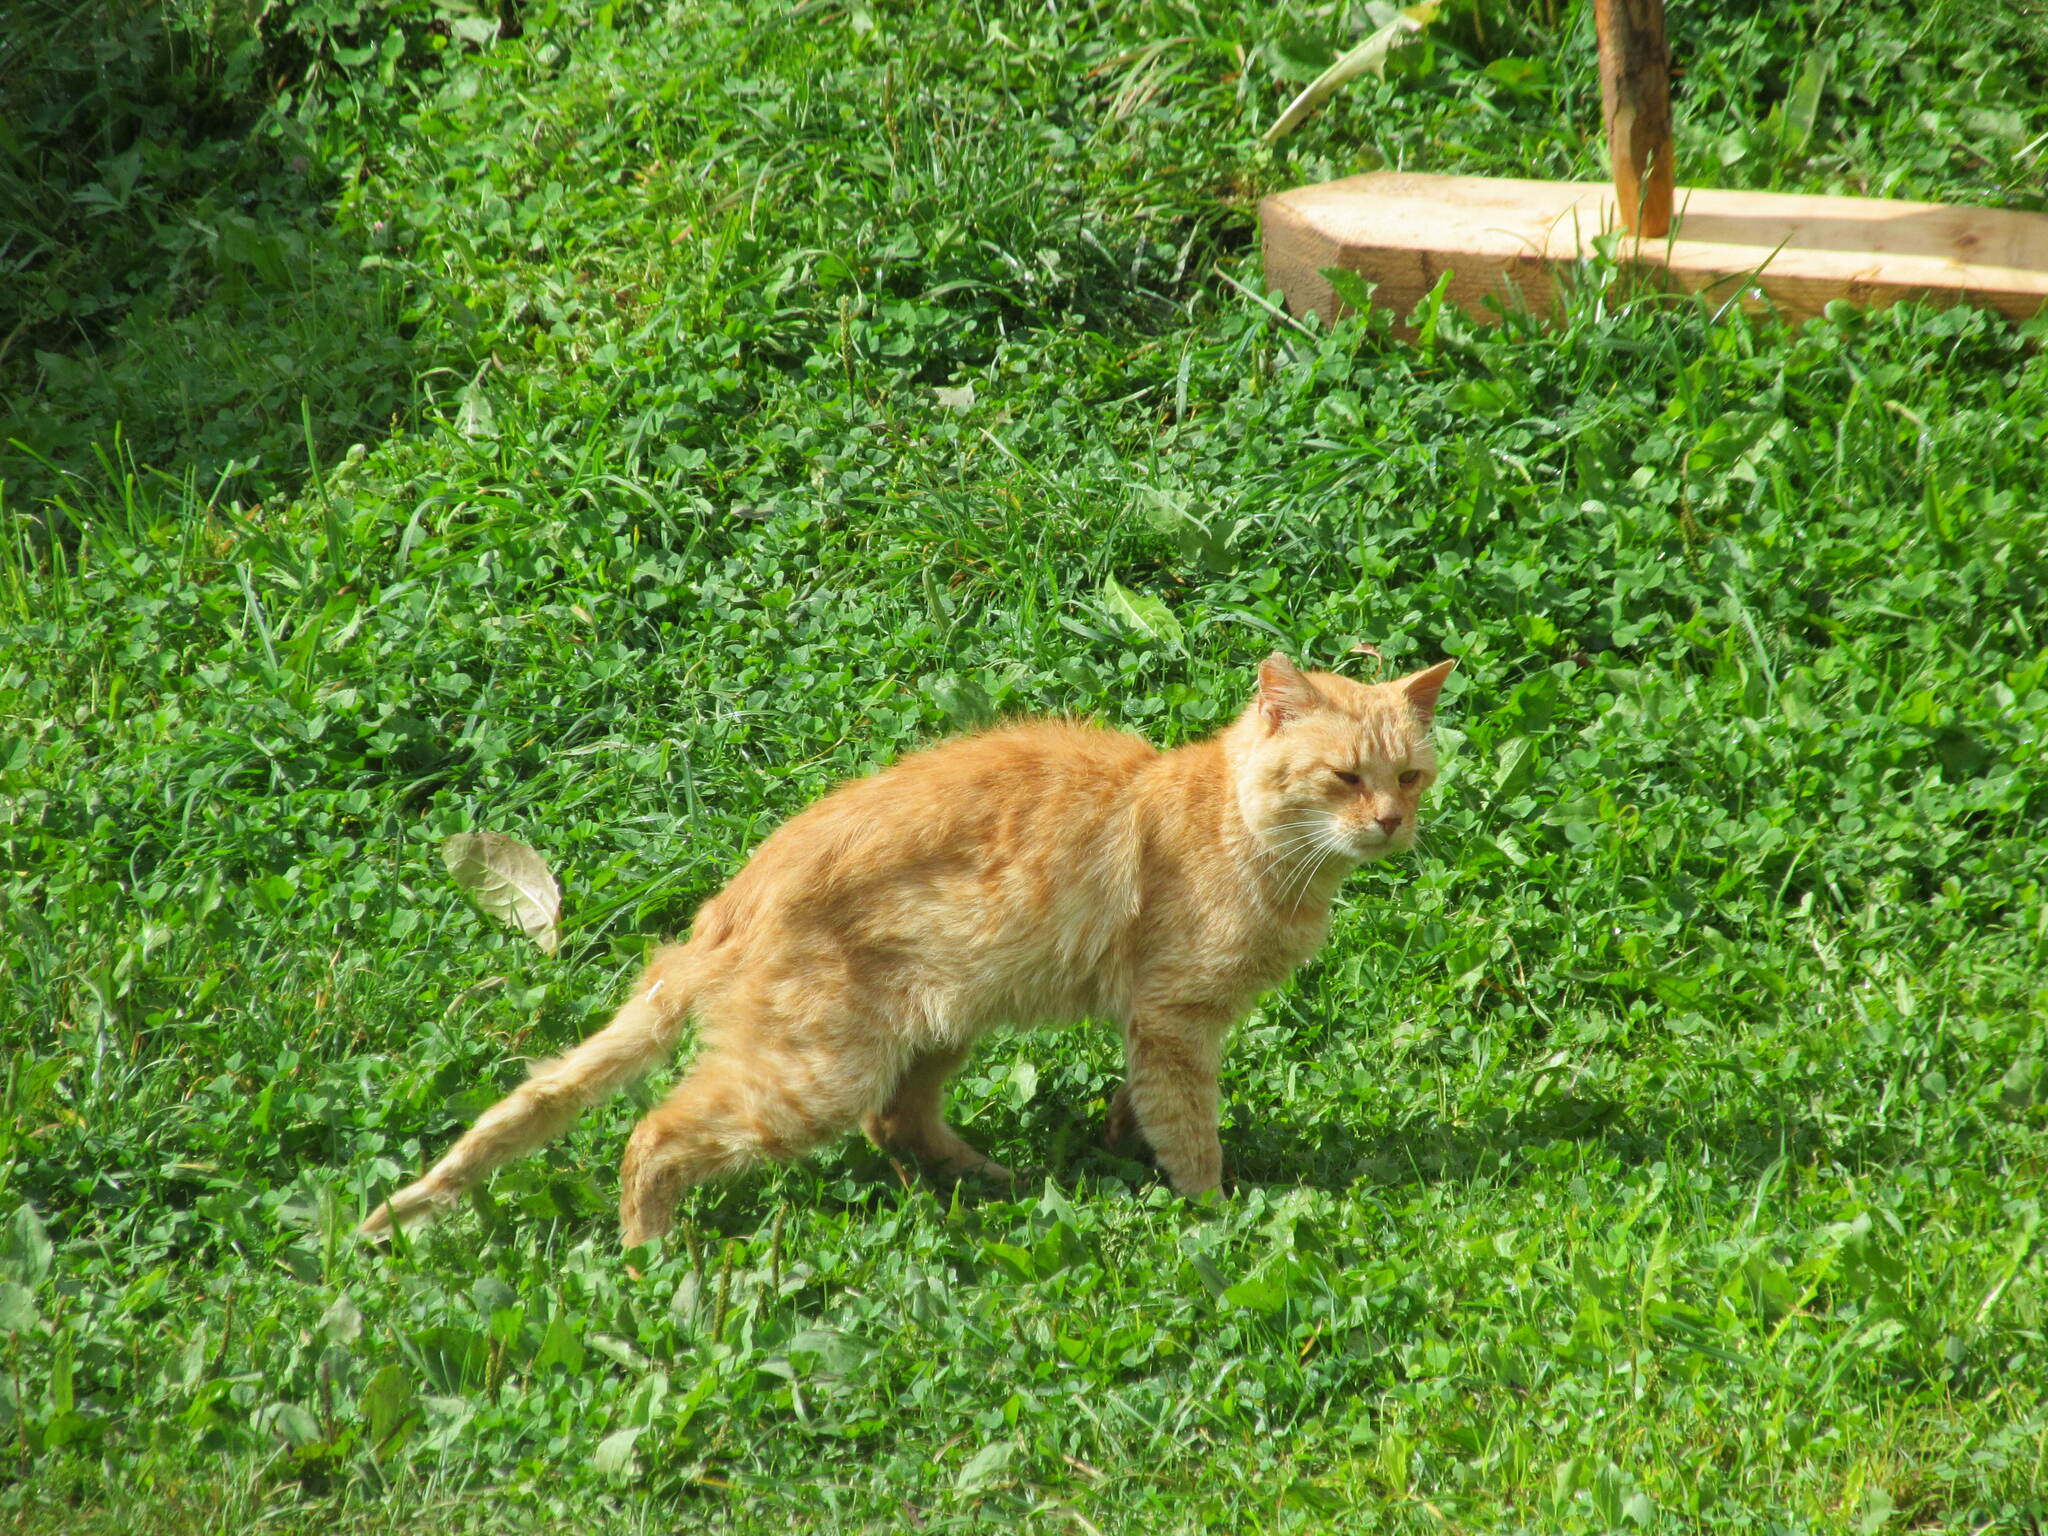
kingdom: Animalia
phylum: Chordata
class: Mammalia
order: Carnivora
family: Felidae
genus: Felis
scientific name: Felis catus
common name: Domestic cat
